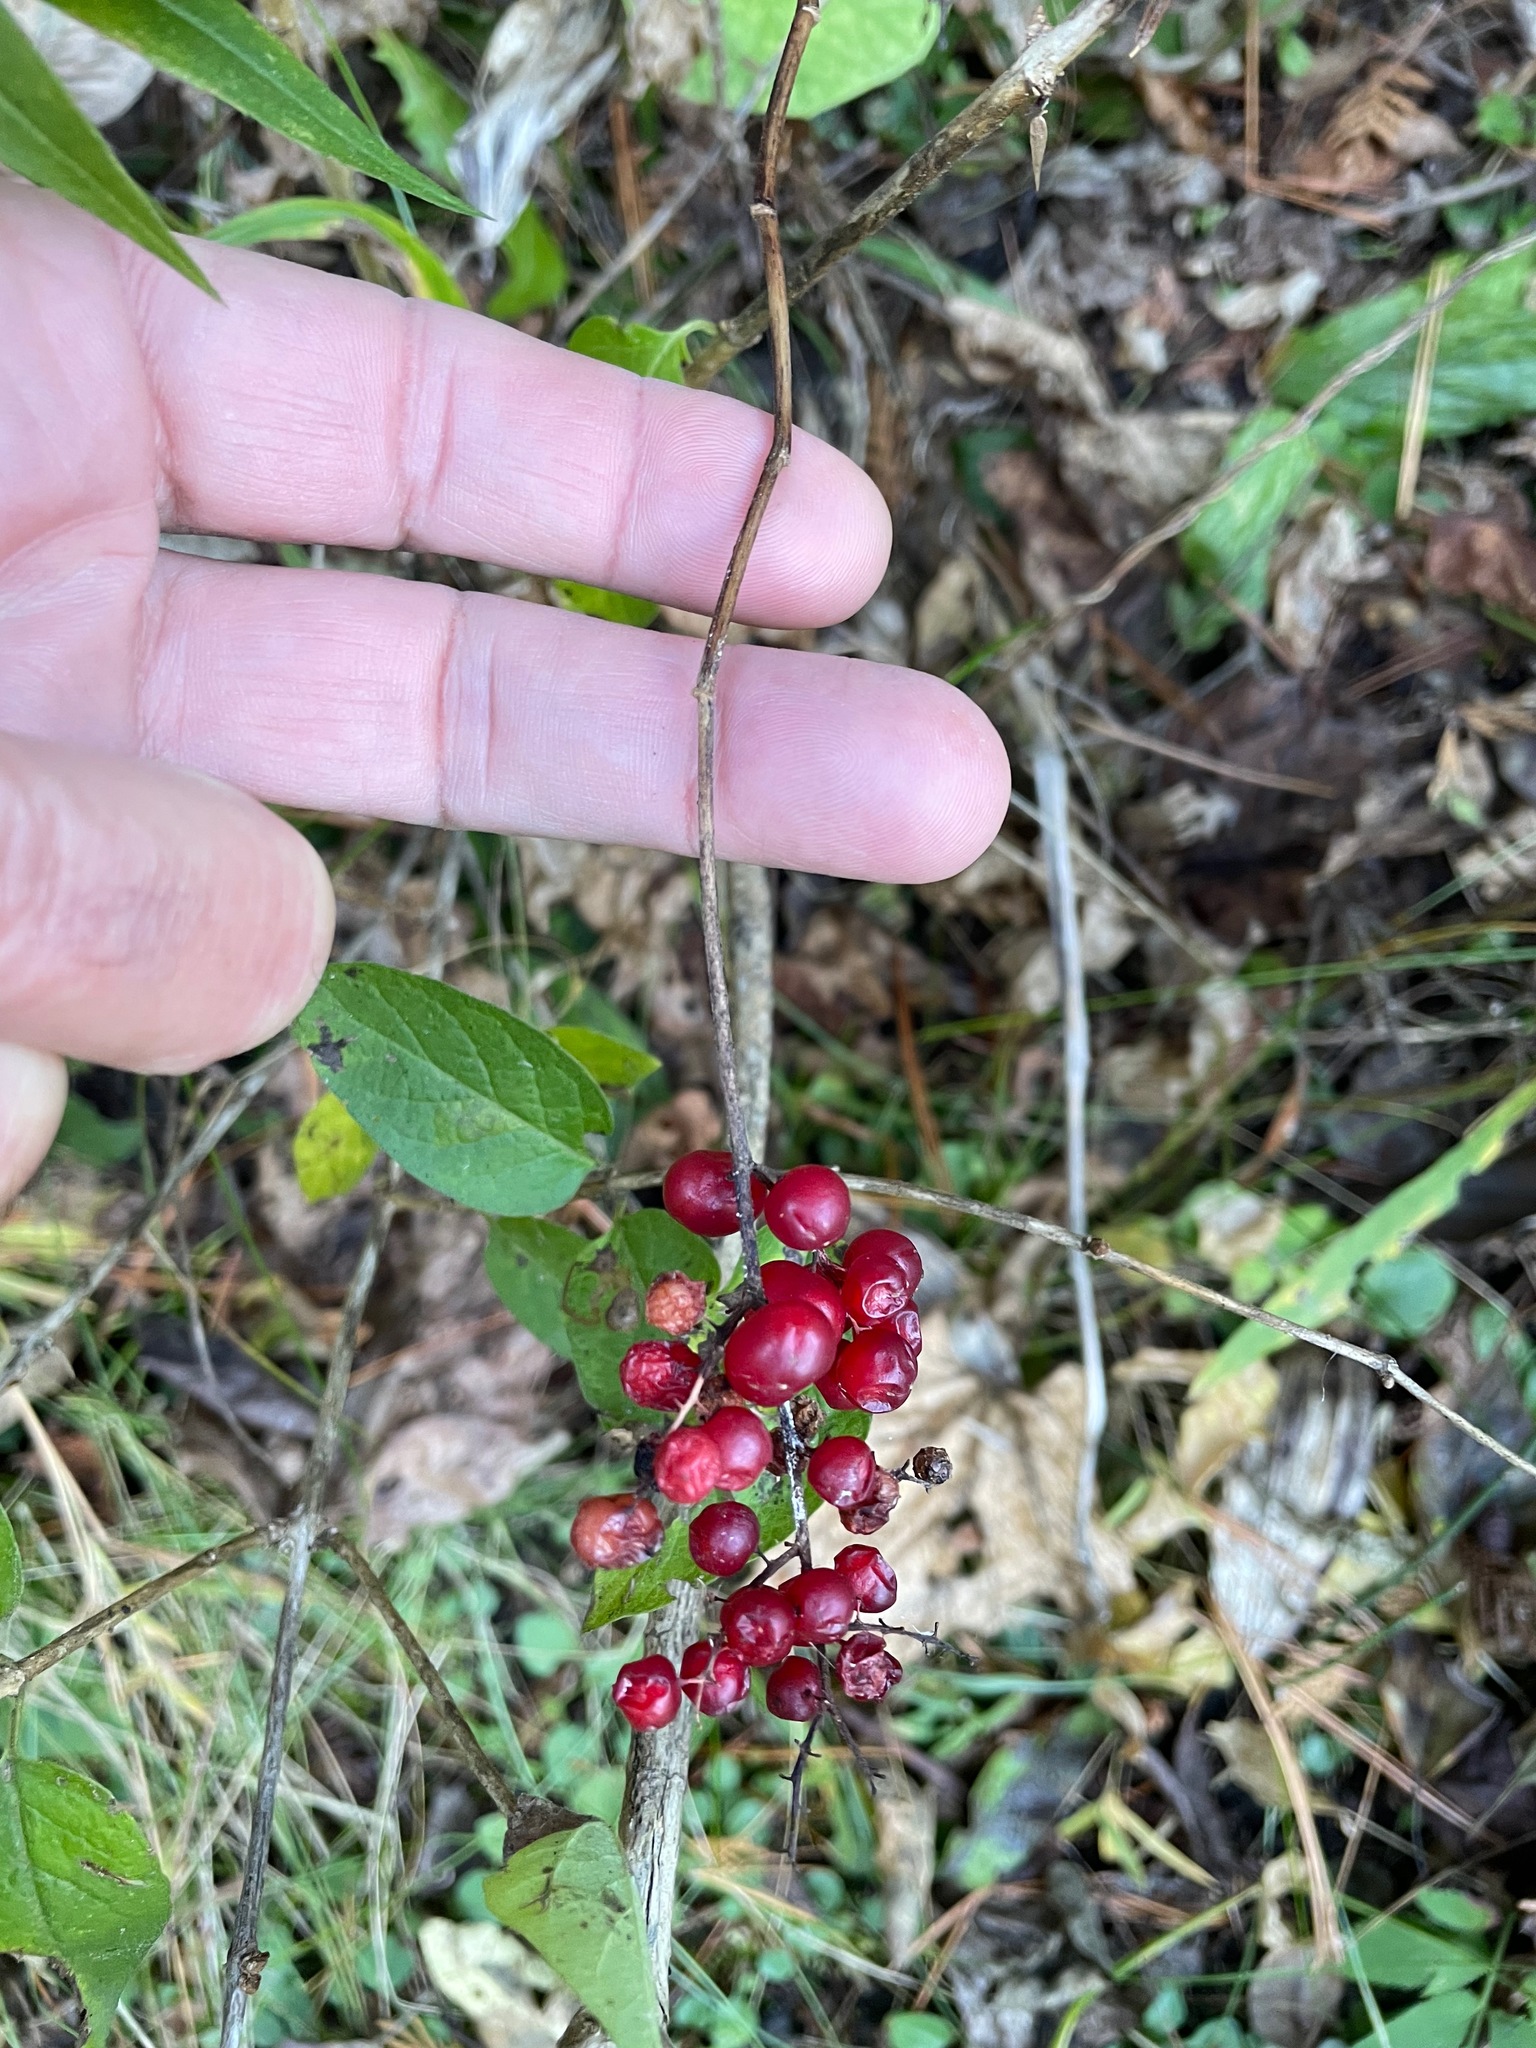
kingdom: Plantae
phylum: Tracheophyta
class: Liliopsida
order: Asparagales
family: Asparagaceae
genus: Maianthemum
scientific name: Maianthemum racemosum
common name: False spikenard
